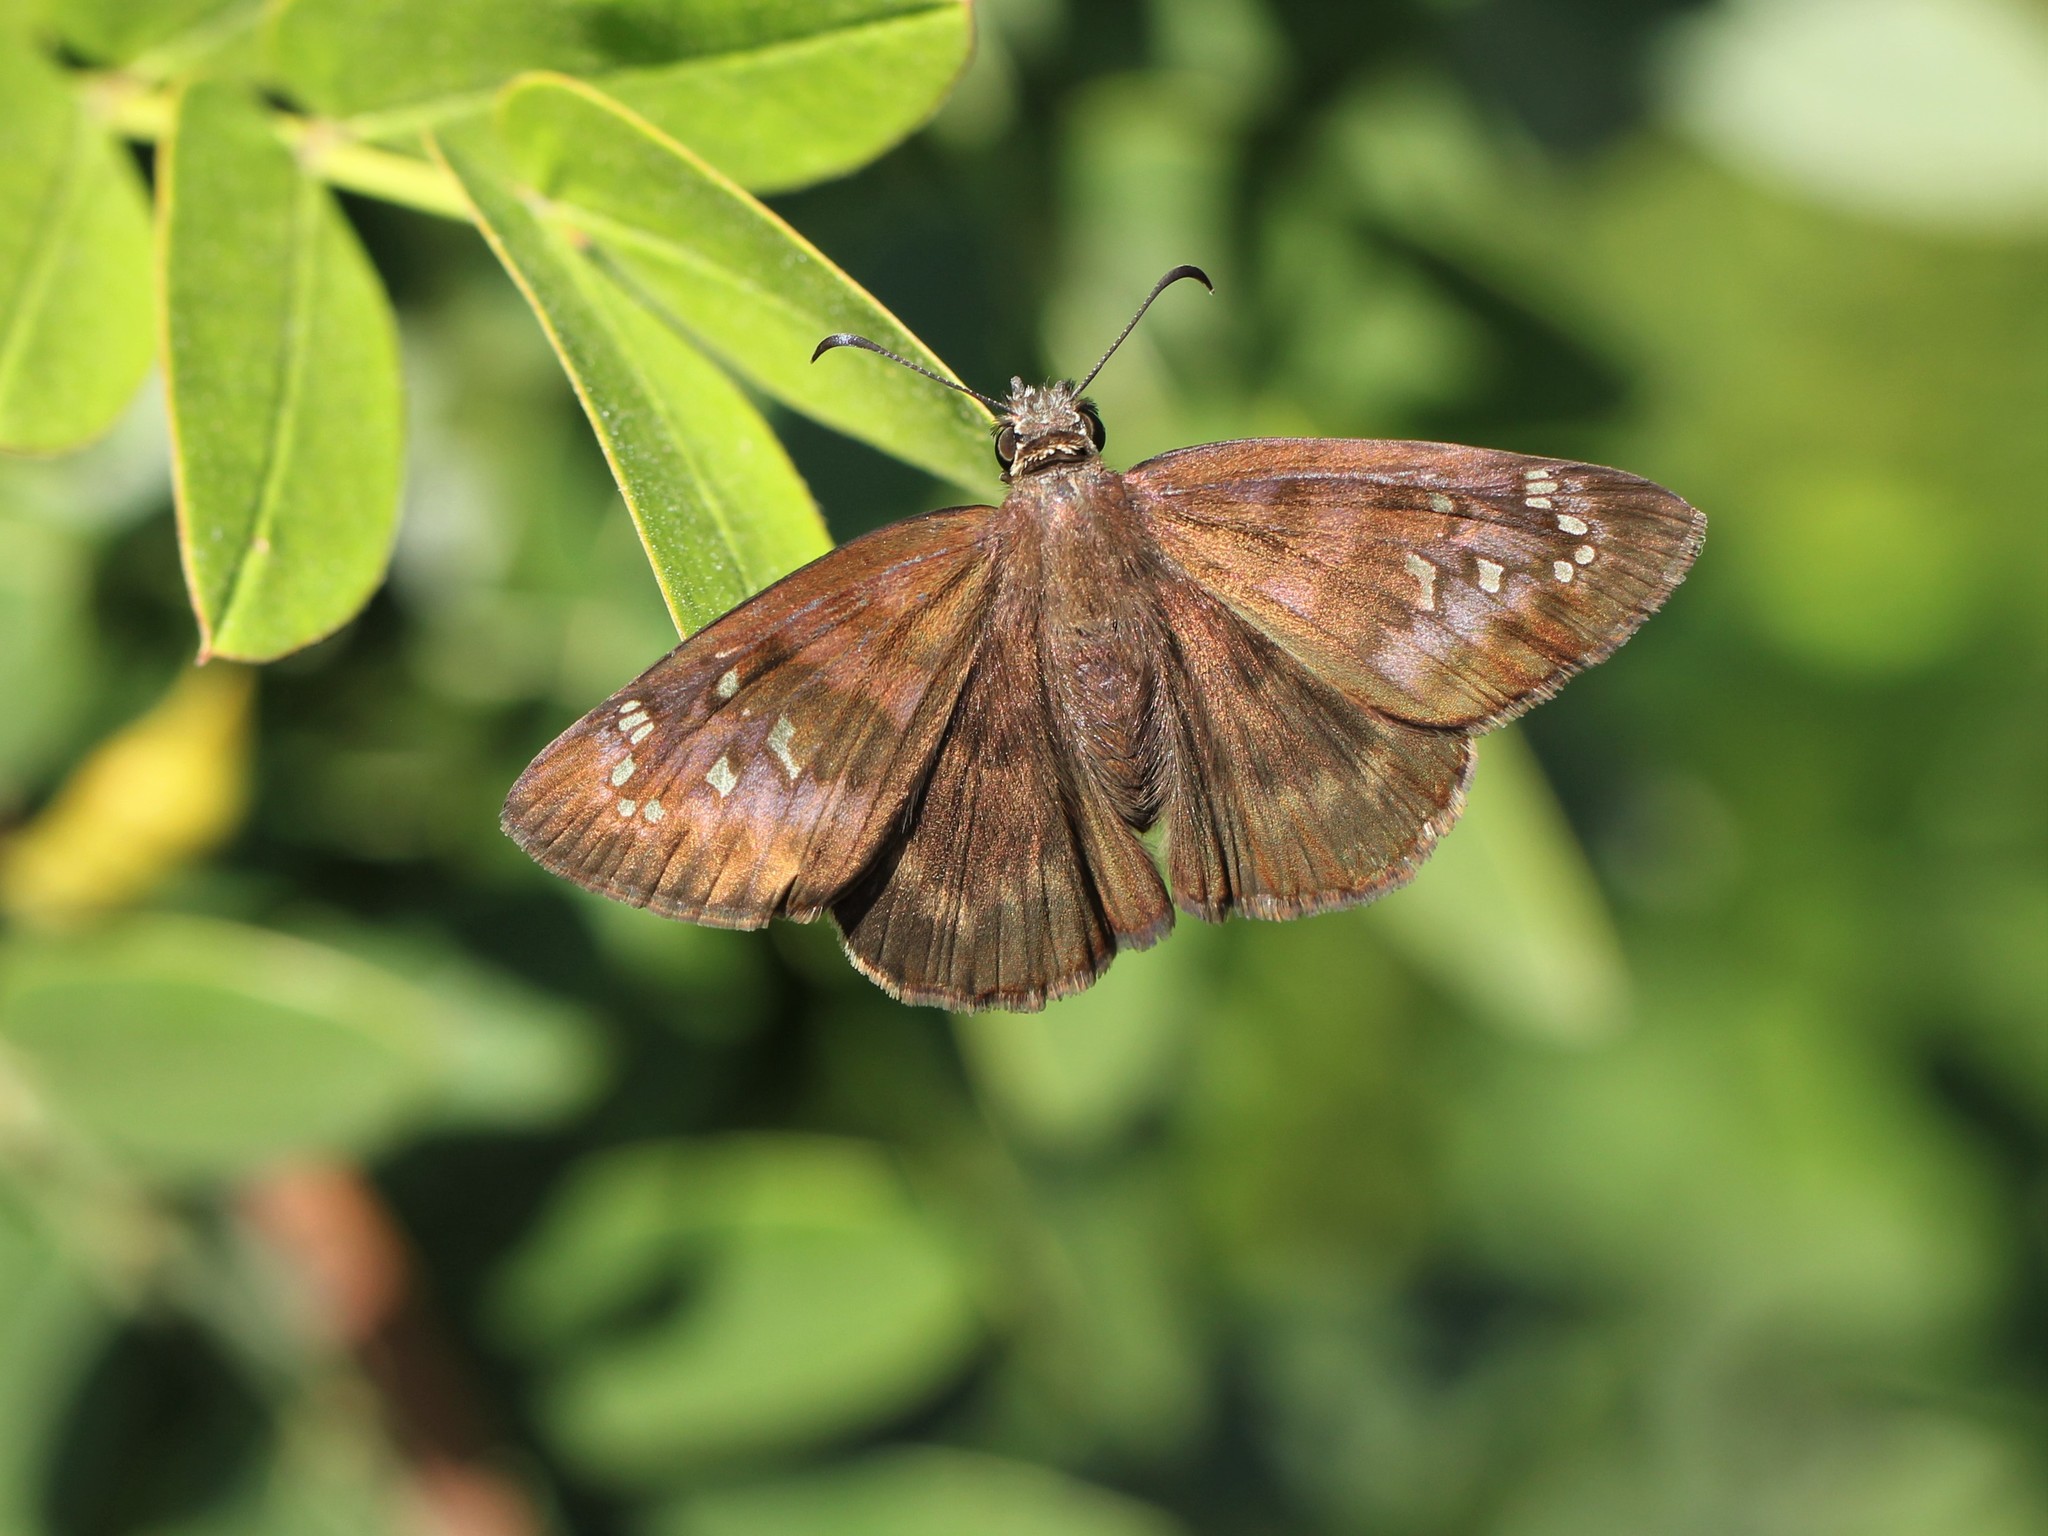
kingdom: Animalia
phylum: Arthropoda
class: Insecta
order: Lepidoptera
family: Hesperiidae
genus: Ephyriades
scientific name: Ephyriades brunnea
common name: Florida duskywing
